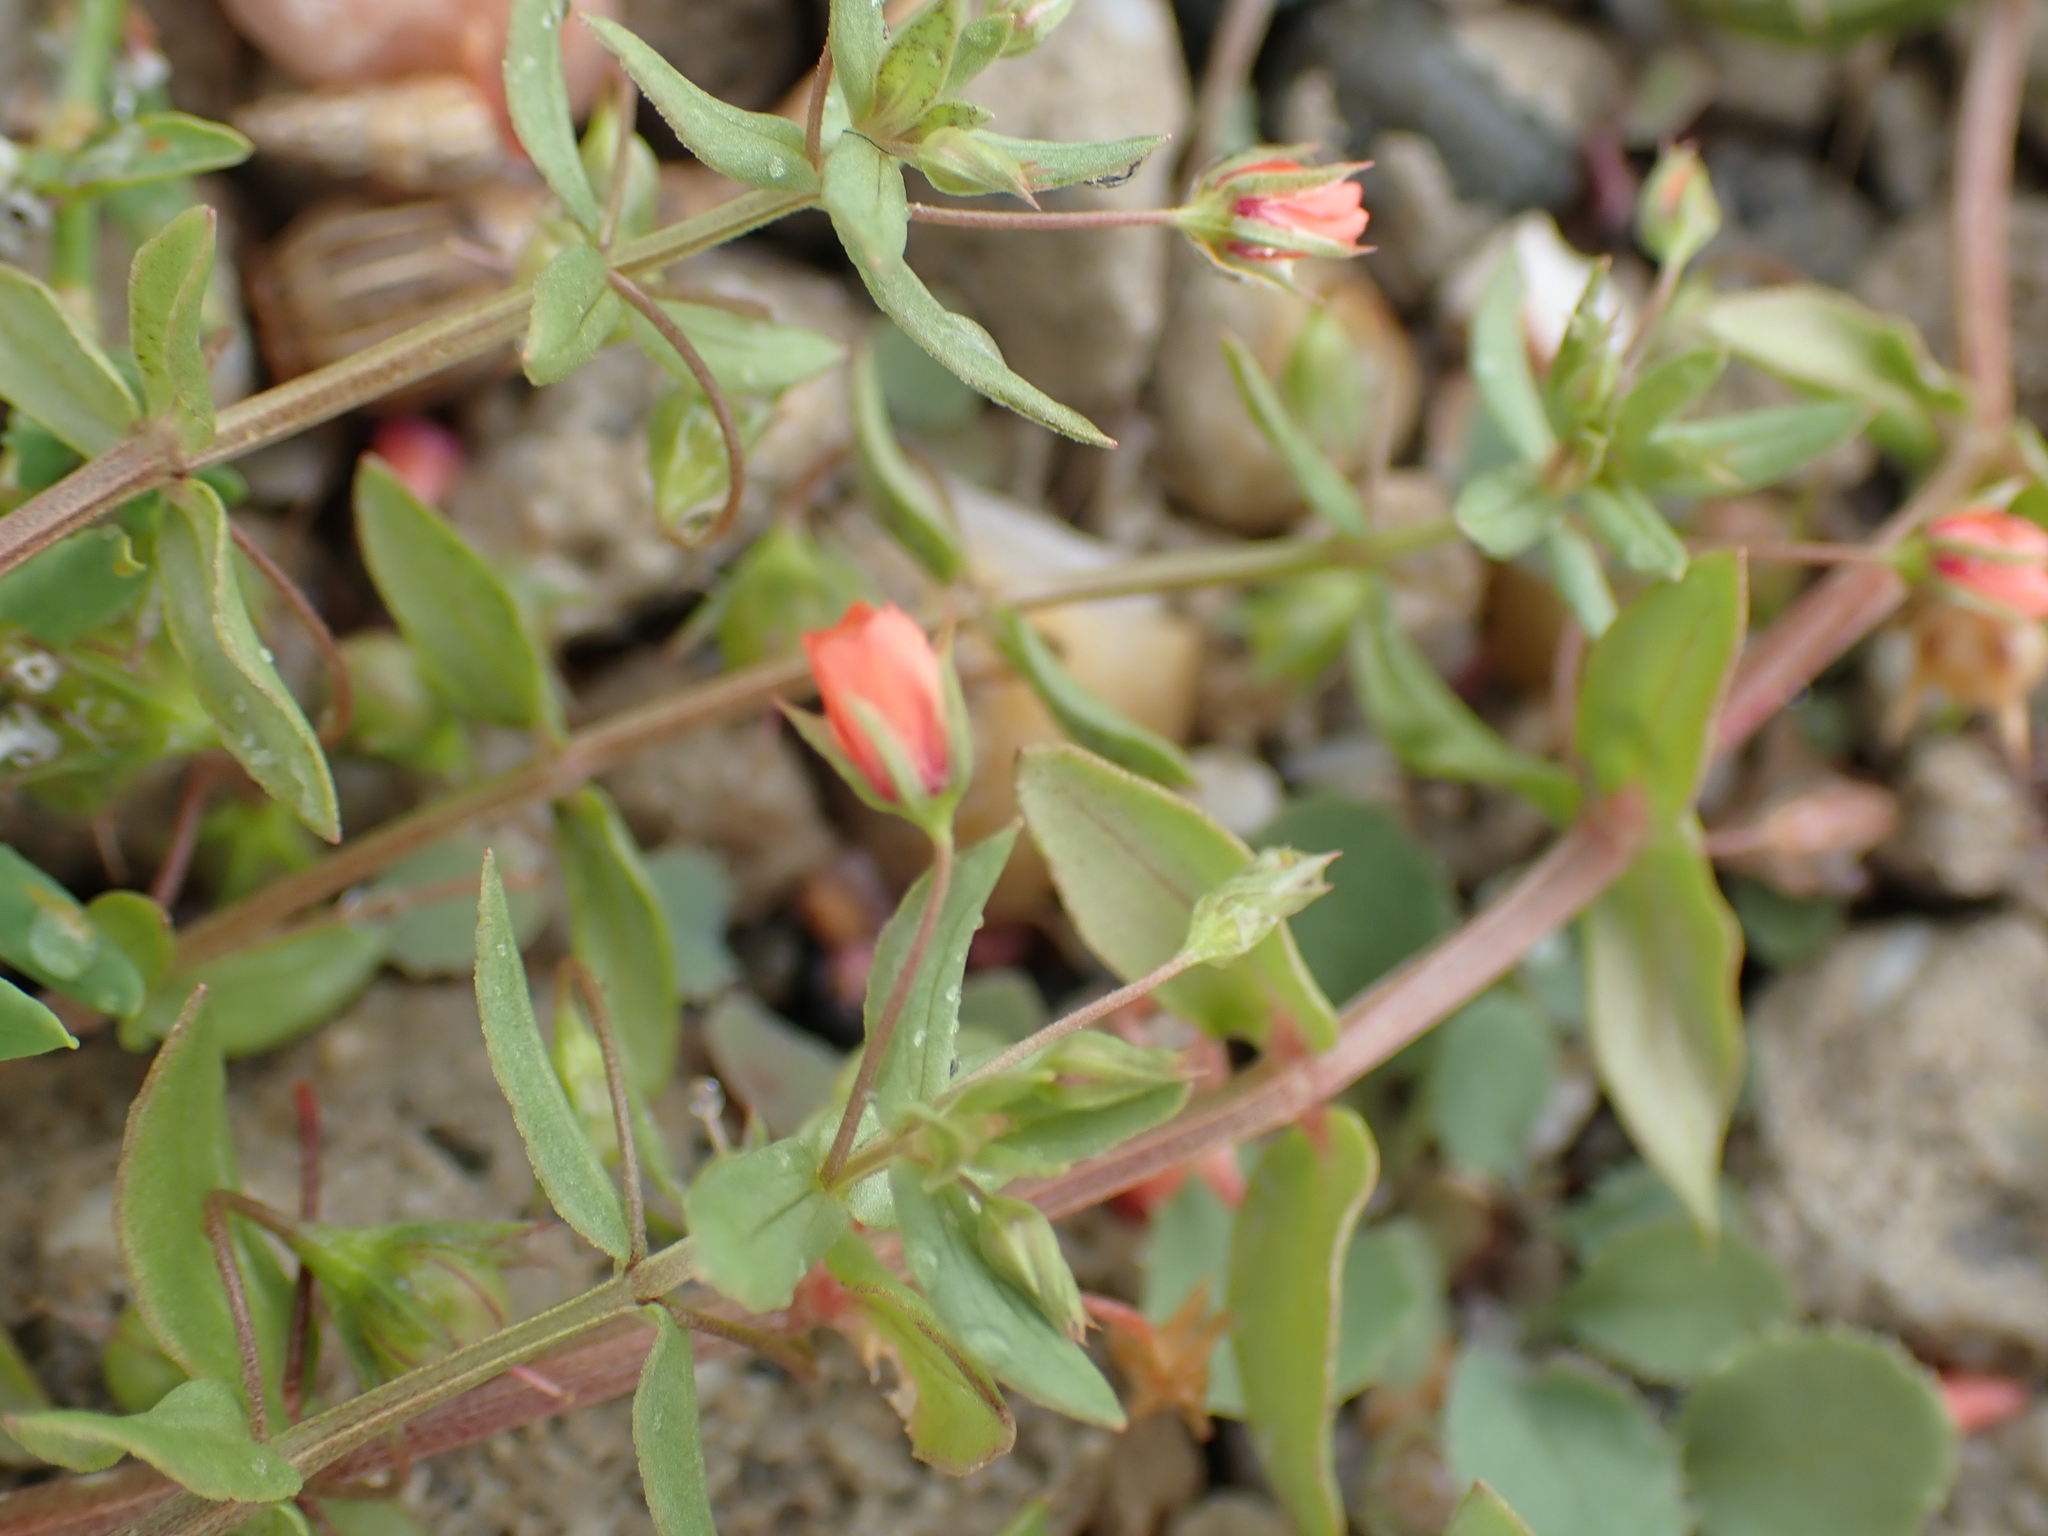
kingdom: Plantae
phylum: Tracheophyta
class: Magnoliopsida
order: Ericales
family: Primulaceae
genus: Lysimachia
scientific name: Lysimachia arvensis
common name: Scarlet pimpernel
